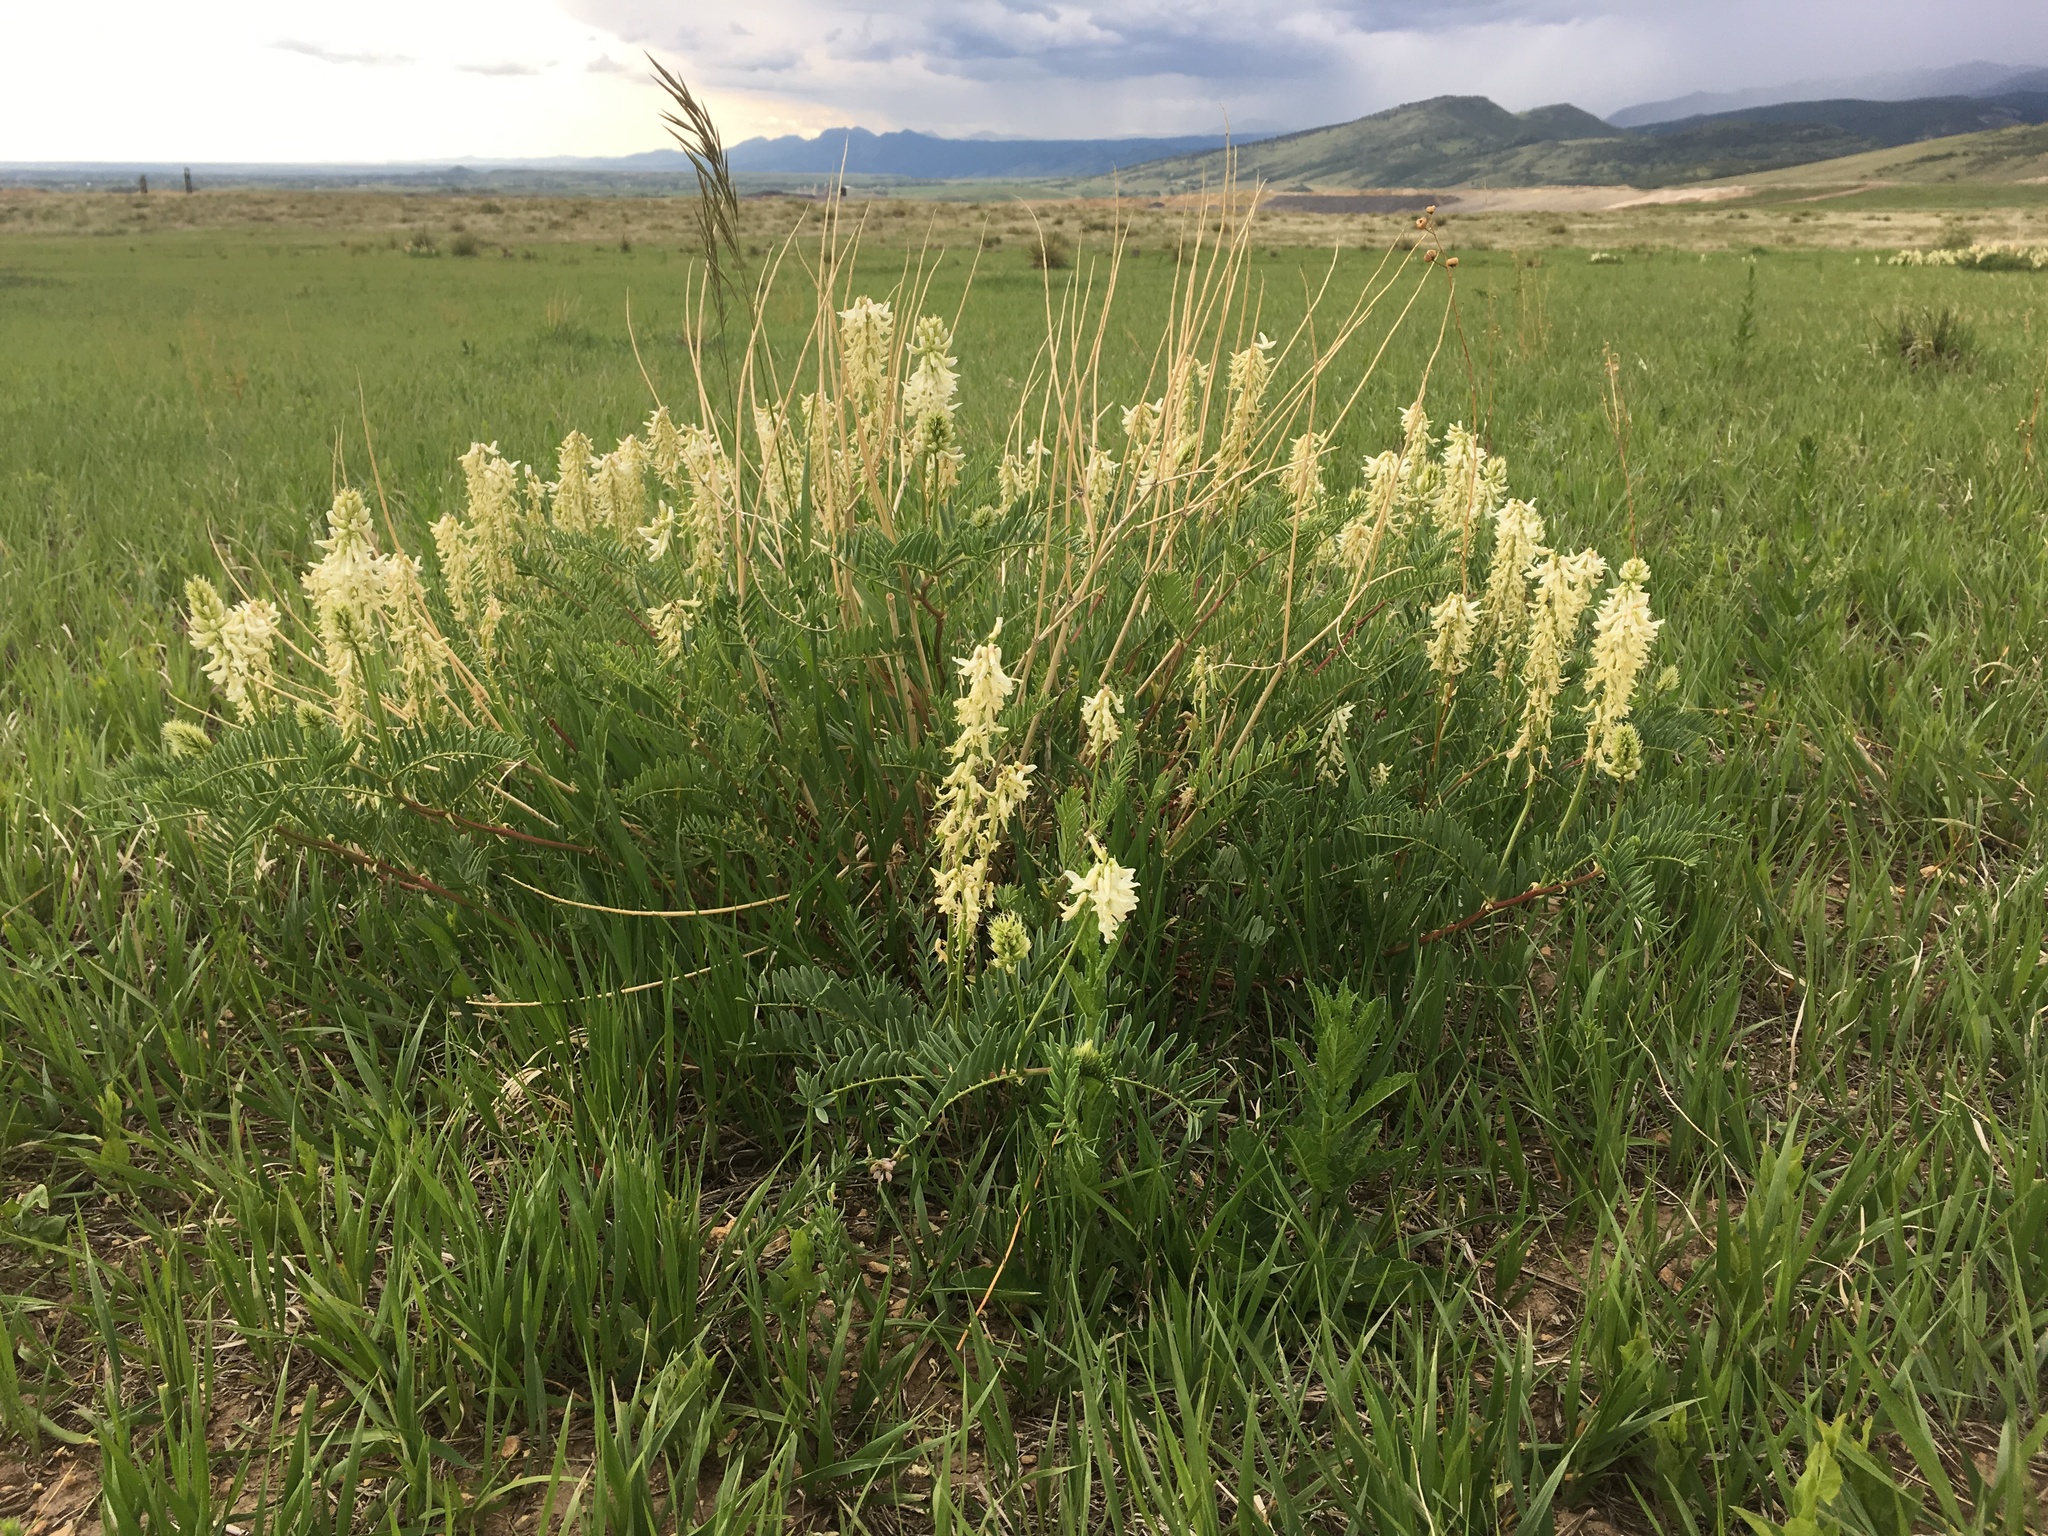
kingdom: Plantae
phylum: Tracheophyta
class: Magnoliopsida
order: Fabales
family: Fabaceae
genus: Astragalus
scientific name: Astragalus bisulcatus
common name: Two-groove milk-vetch
